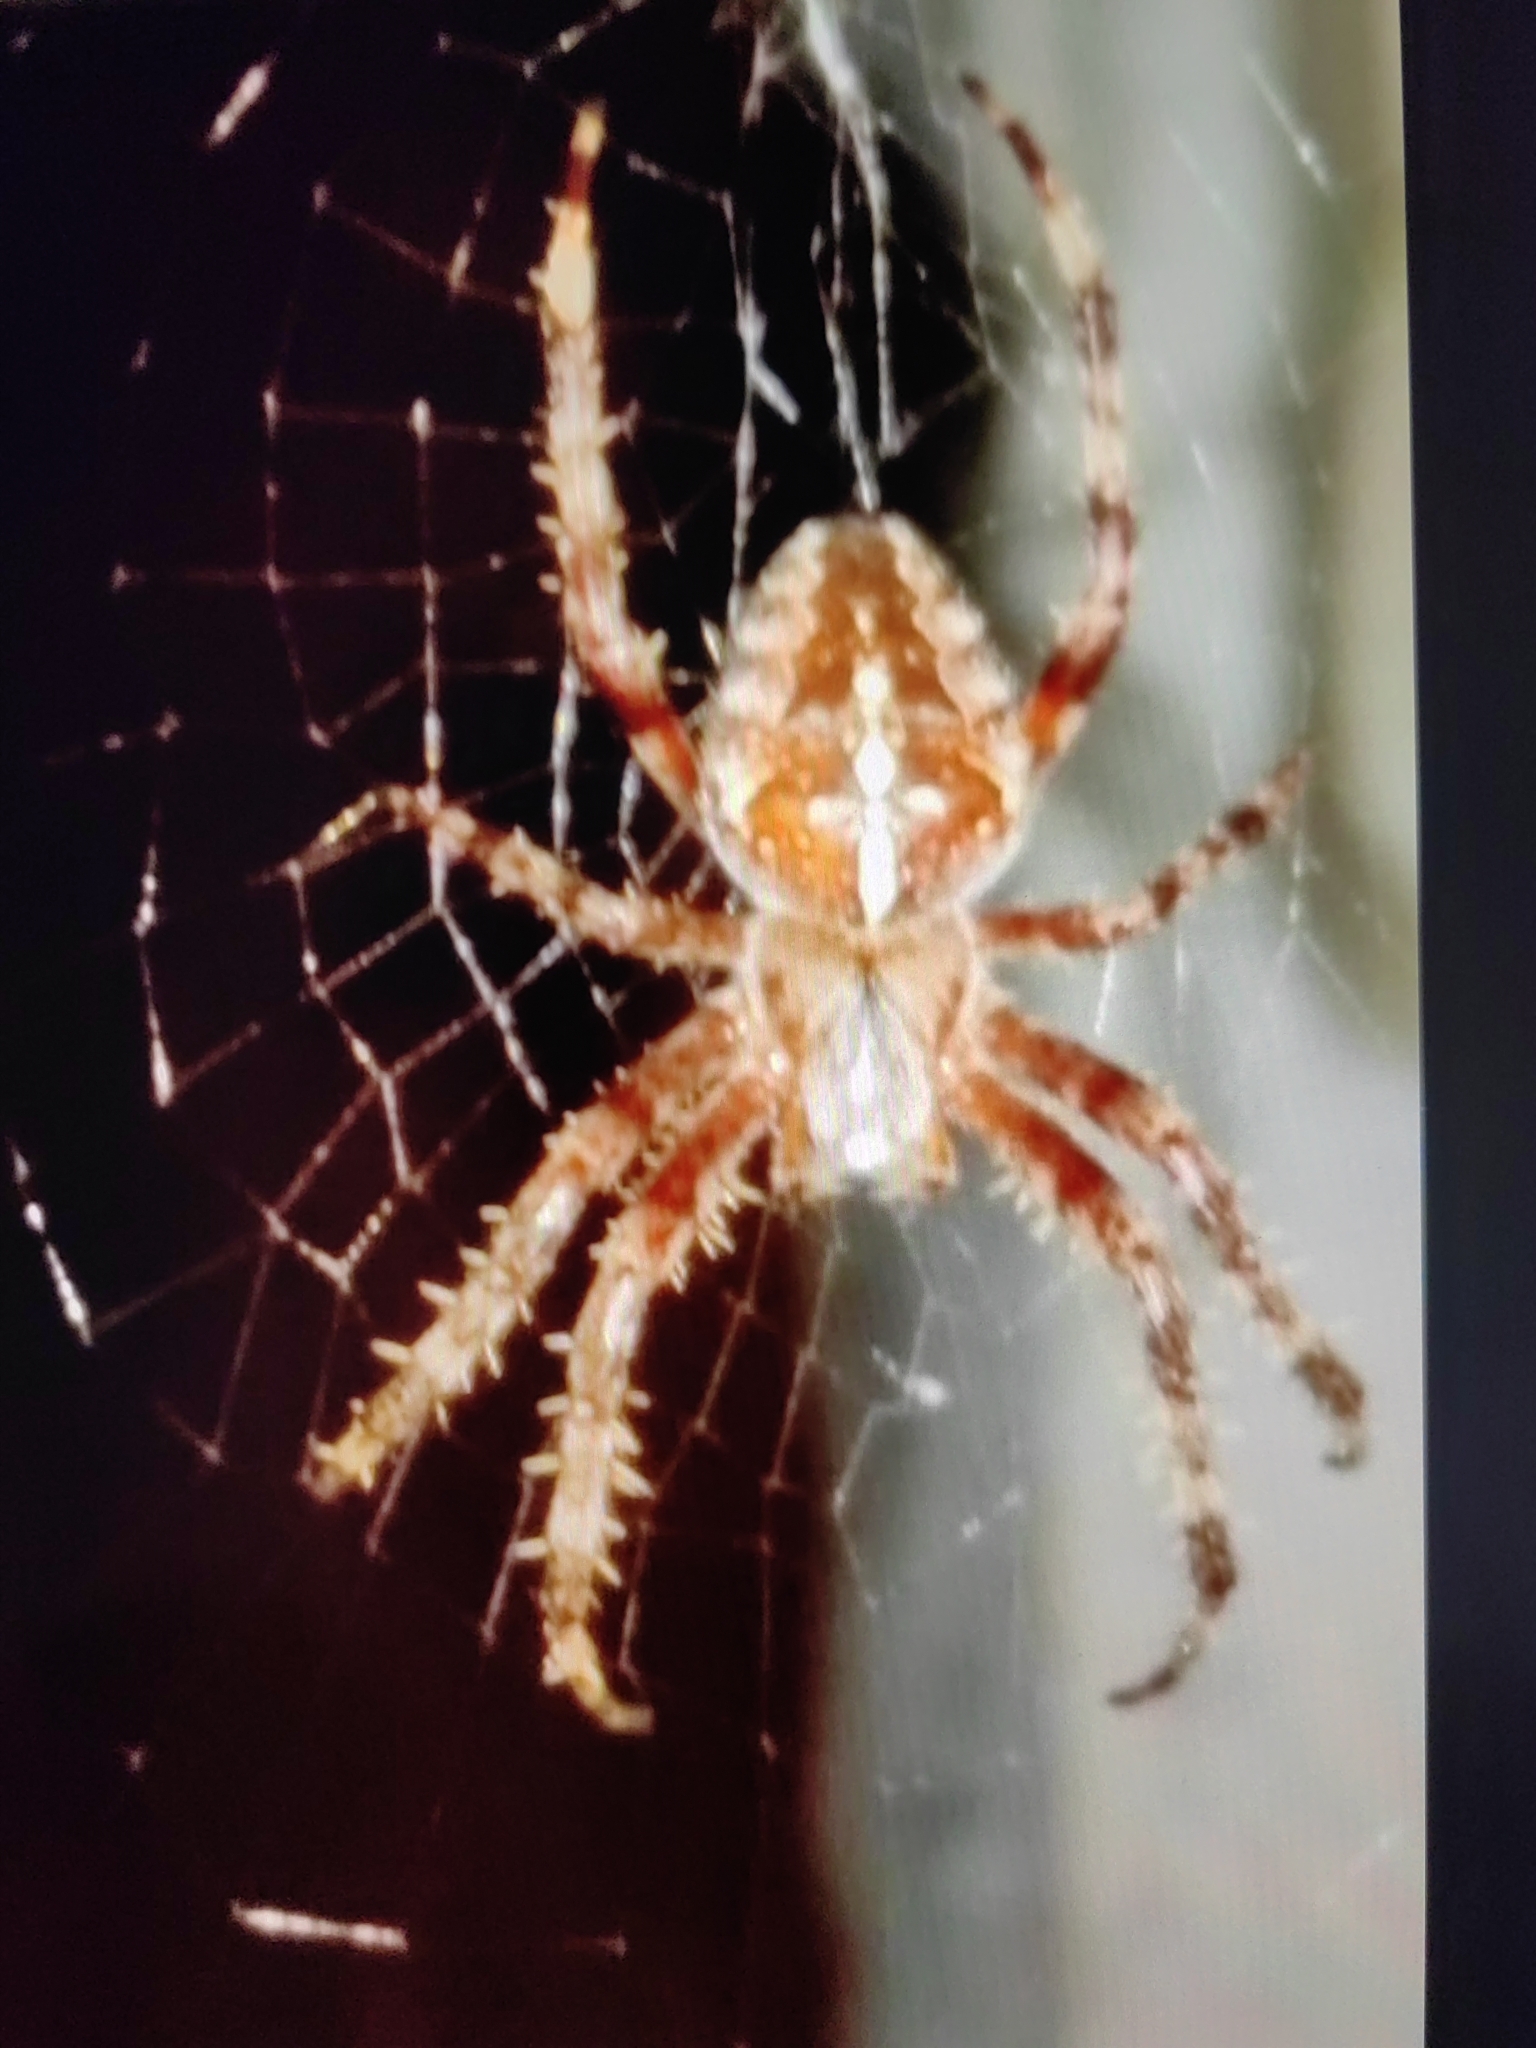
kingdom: Animalia
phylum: Arthropoda
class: Arachnida
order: Araneae
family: Araneidae
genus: Araneus
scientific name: Araneus diadematus
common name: Cross orbweaver
